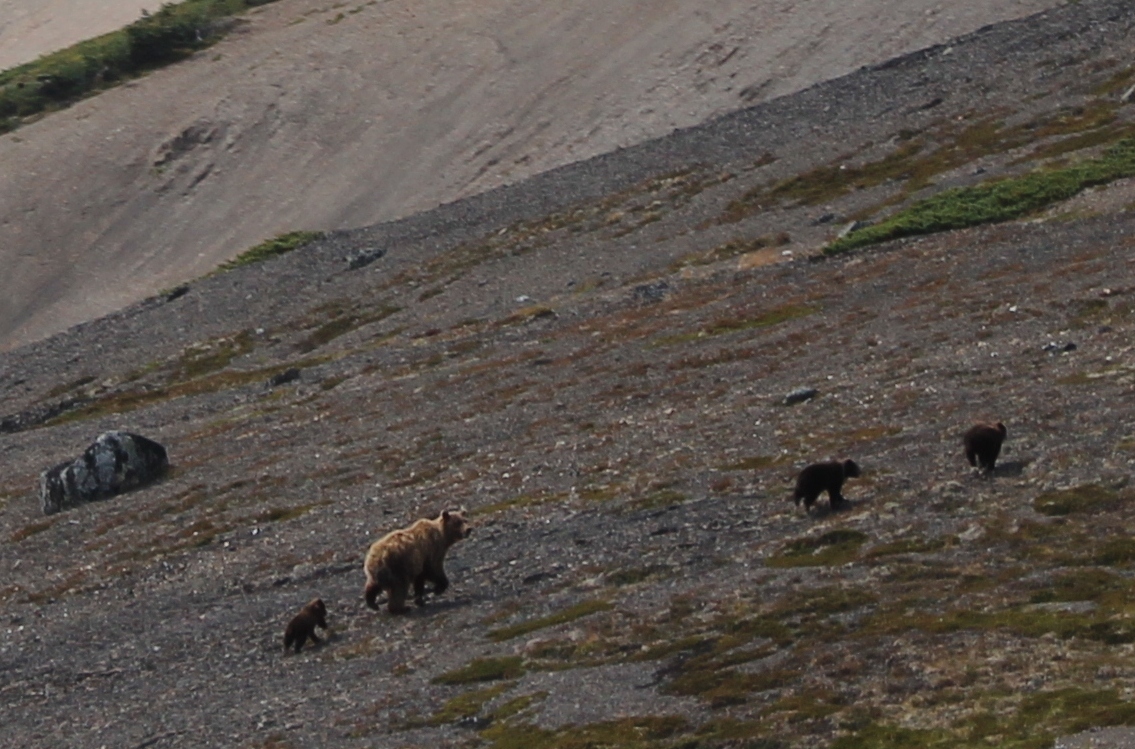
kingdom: Animalia
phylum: Chordata
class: Mammalia
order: Carnivora
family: Ursidae
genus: Ursus
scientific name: Ursus arctos
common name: Brown bear
